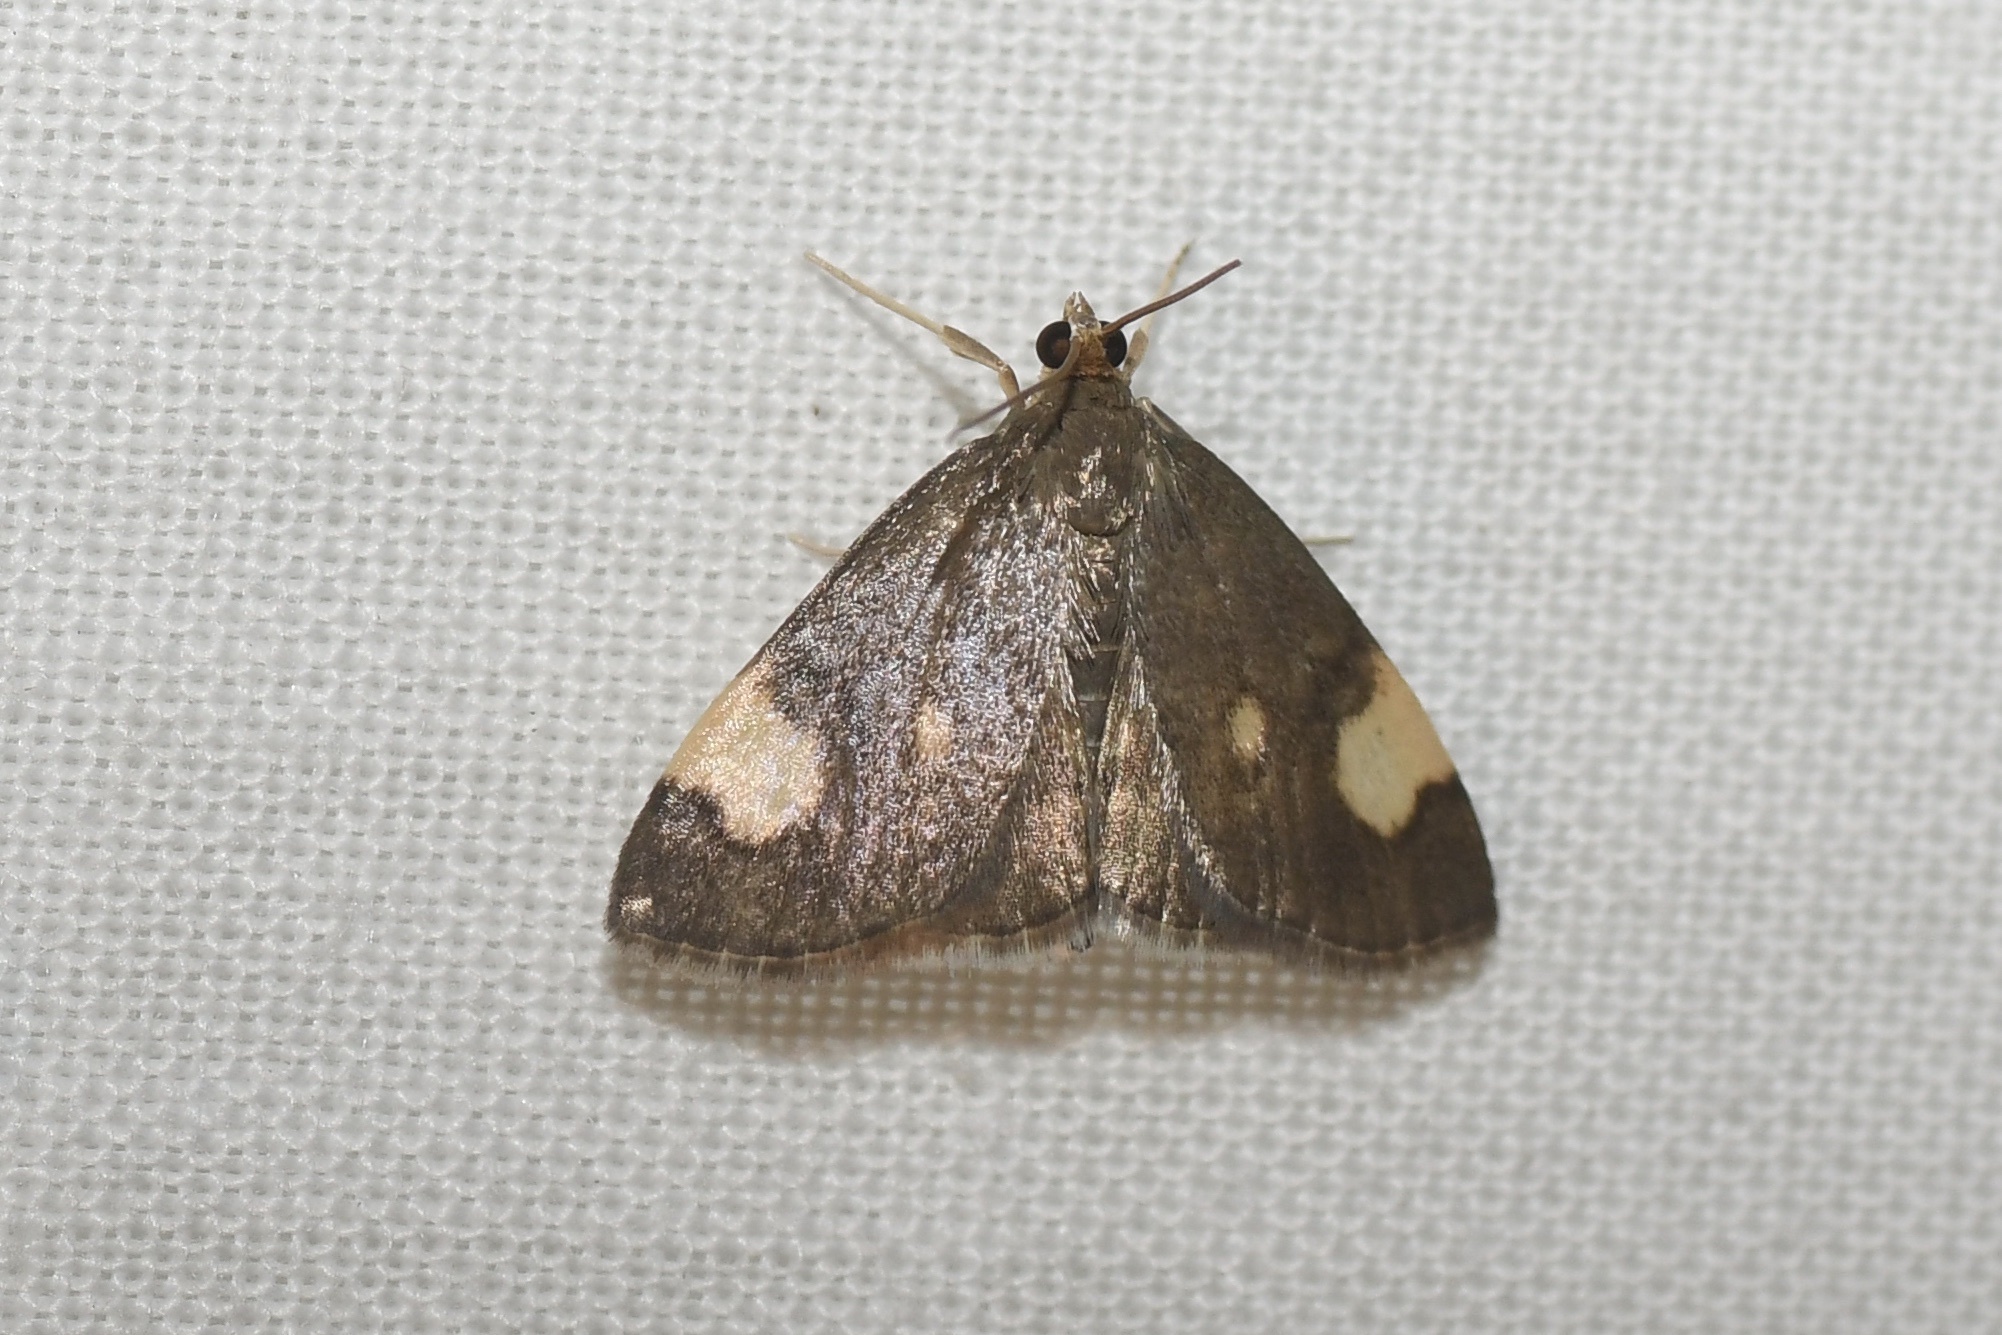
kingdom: Animalia
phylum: Arthropoda
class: Insecta
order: Lepidoptera
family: Crambidae
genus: Evergestis
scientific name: Evergestis unimacula
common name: Large-spotted evergestis moth
